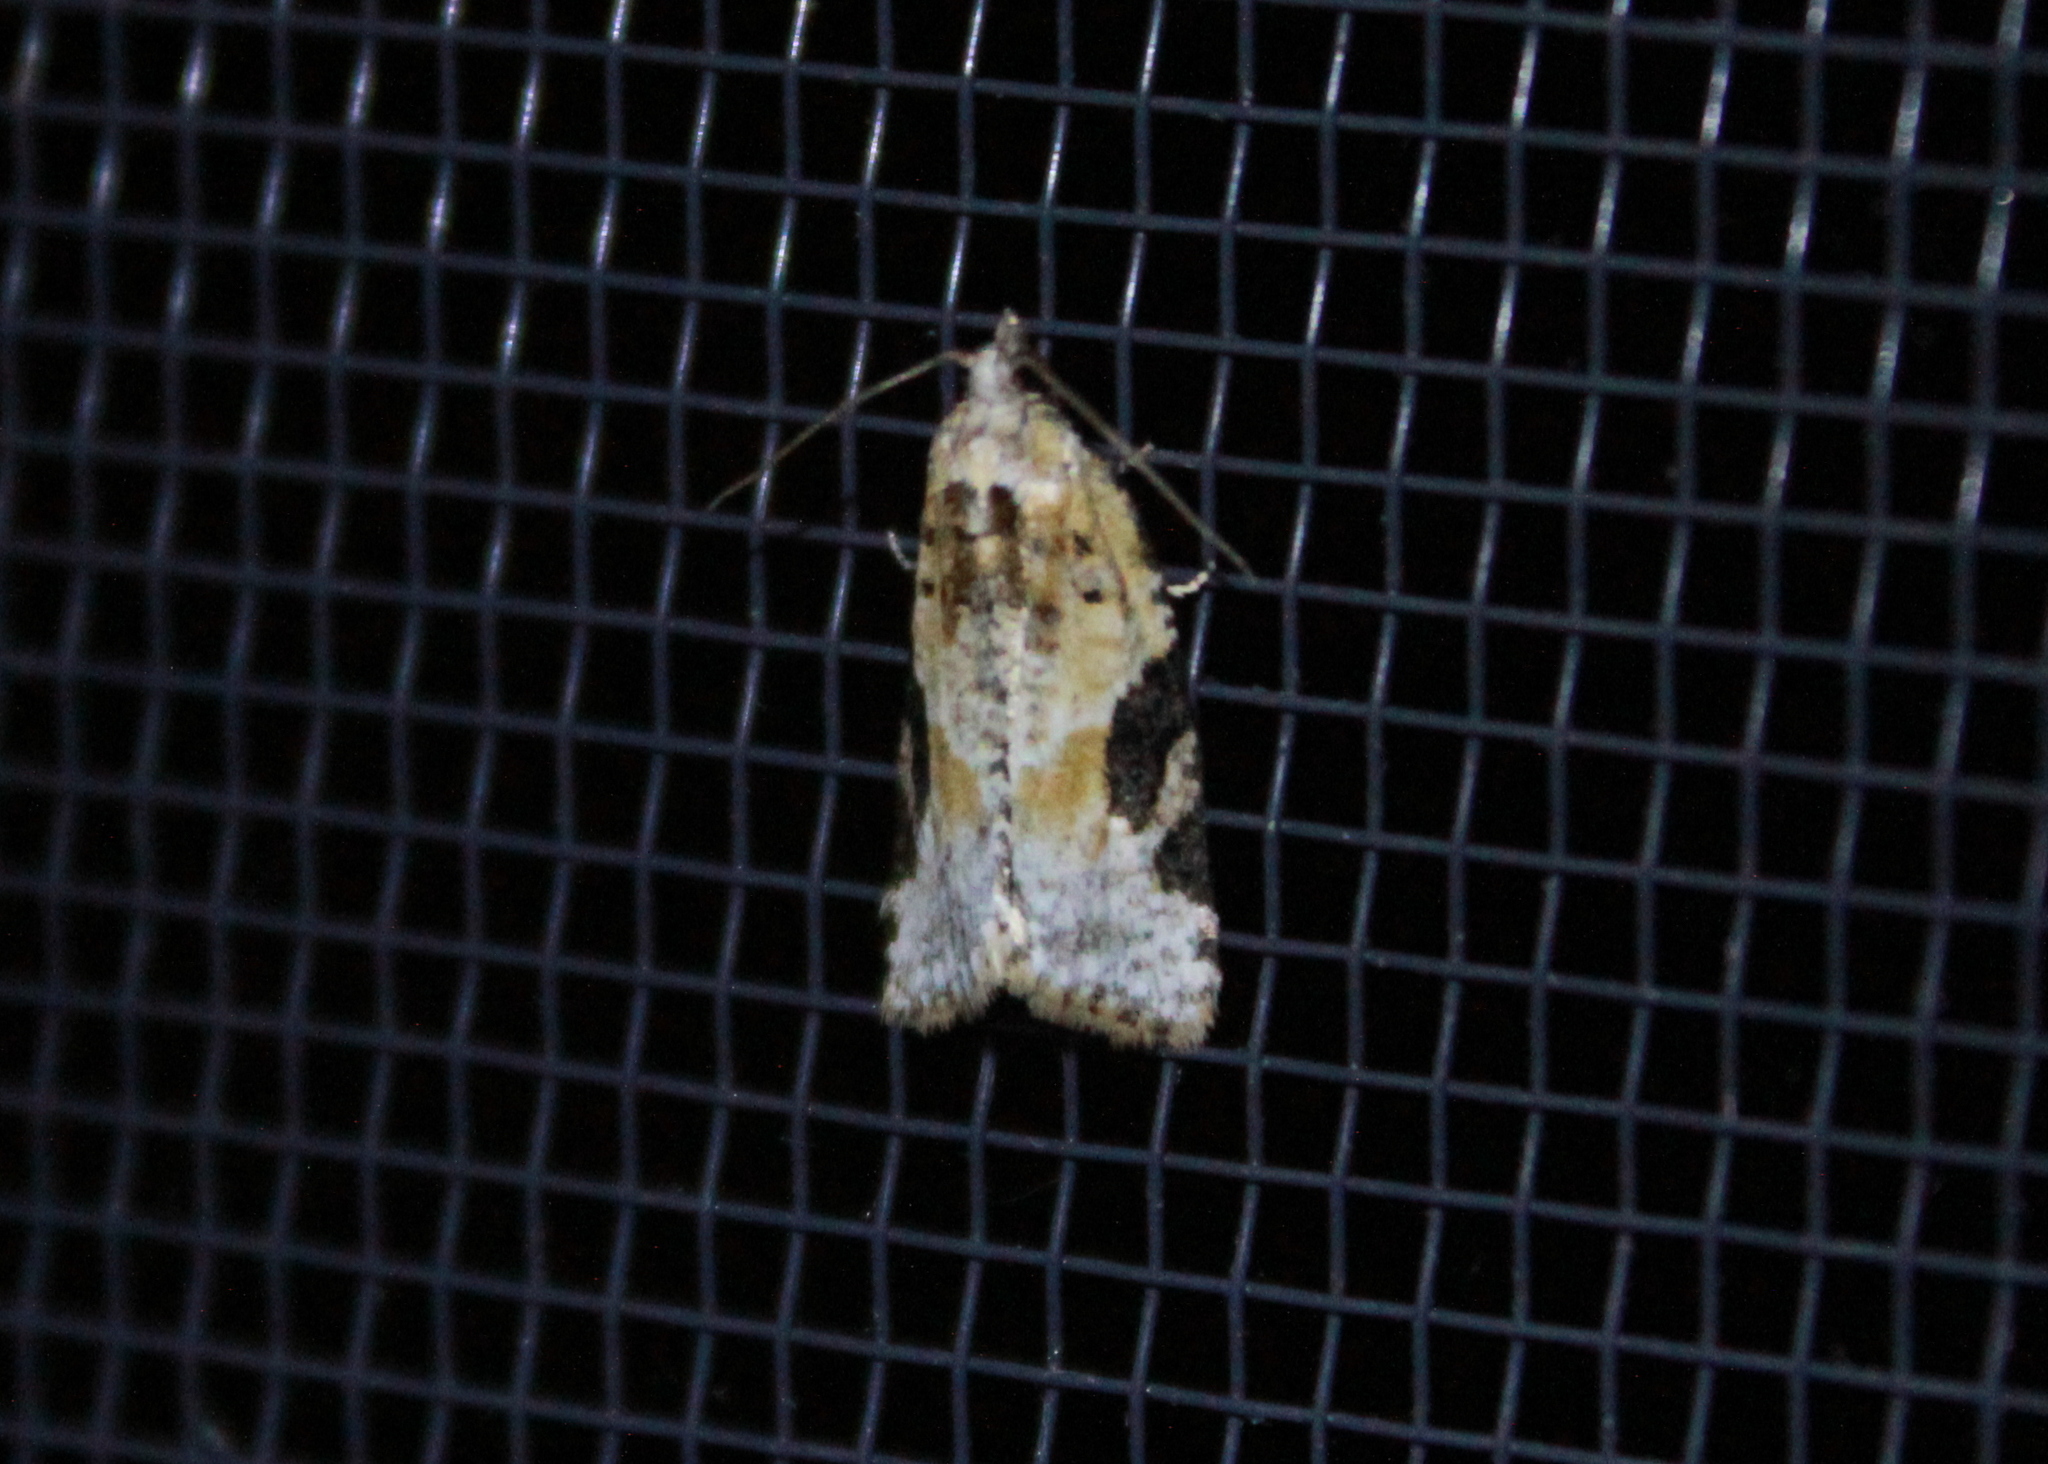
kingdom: Animalia
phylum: Arthropoda
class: Insecta
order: Lepidoptera
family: Tortricidae
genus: Argyrotaenia
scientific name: Argyrotaenia mariana
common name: Gray-banded leafroller moth
